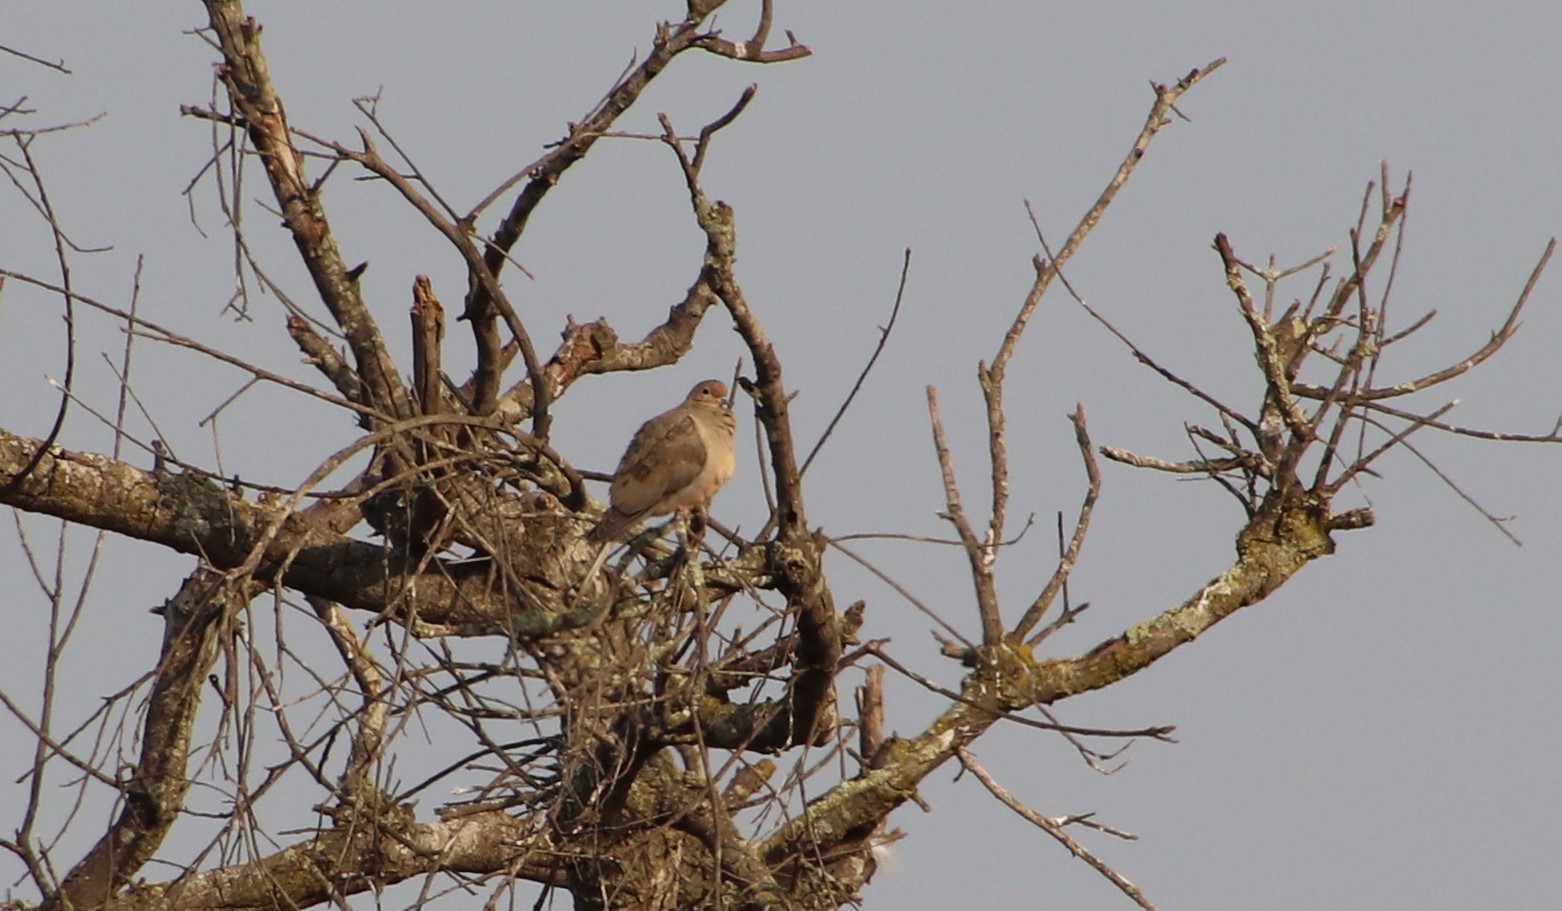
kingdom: Animalia
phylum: Chordata
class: Aves
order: Columbiformes
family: Columbidae
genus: Zenaida
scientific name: Zenaida macroura
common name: Mourning dove
